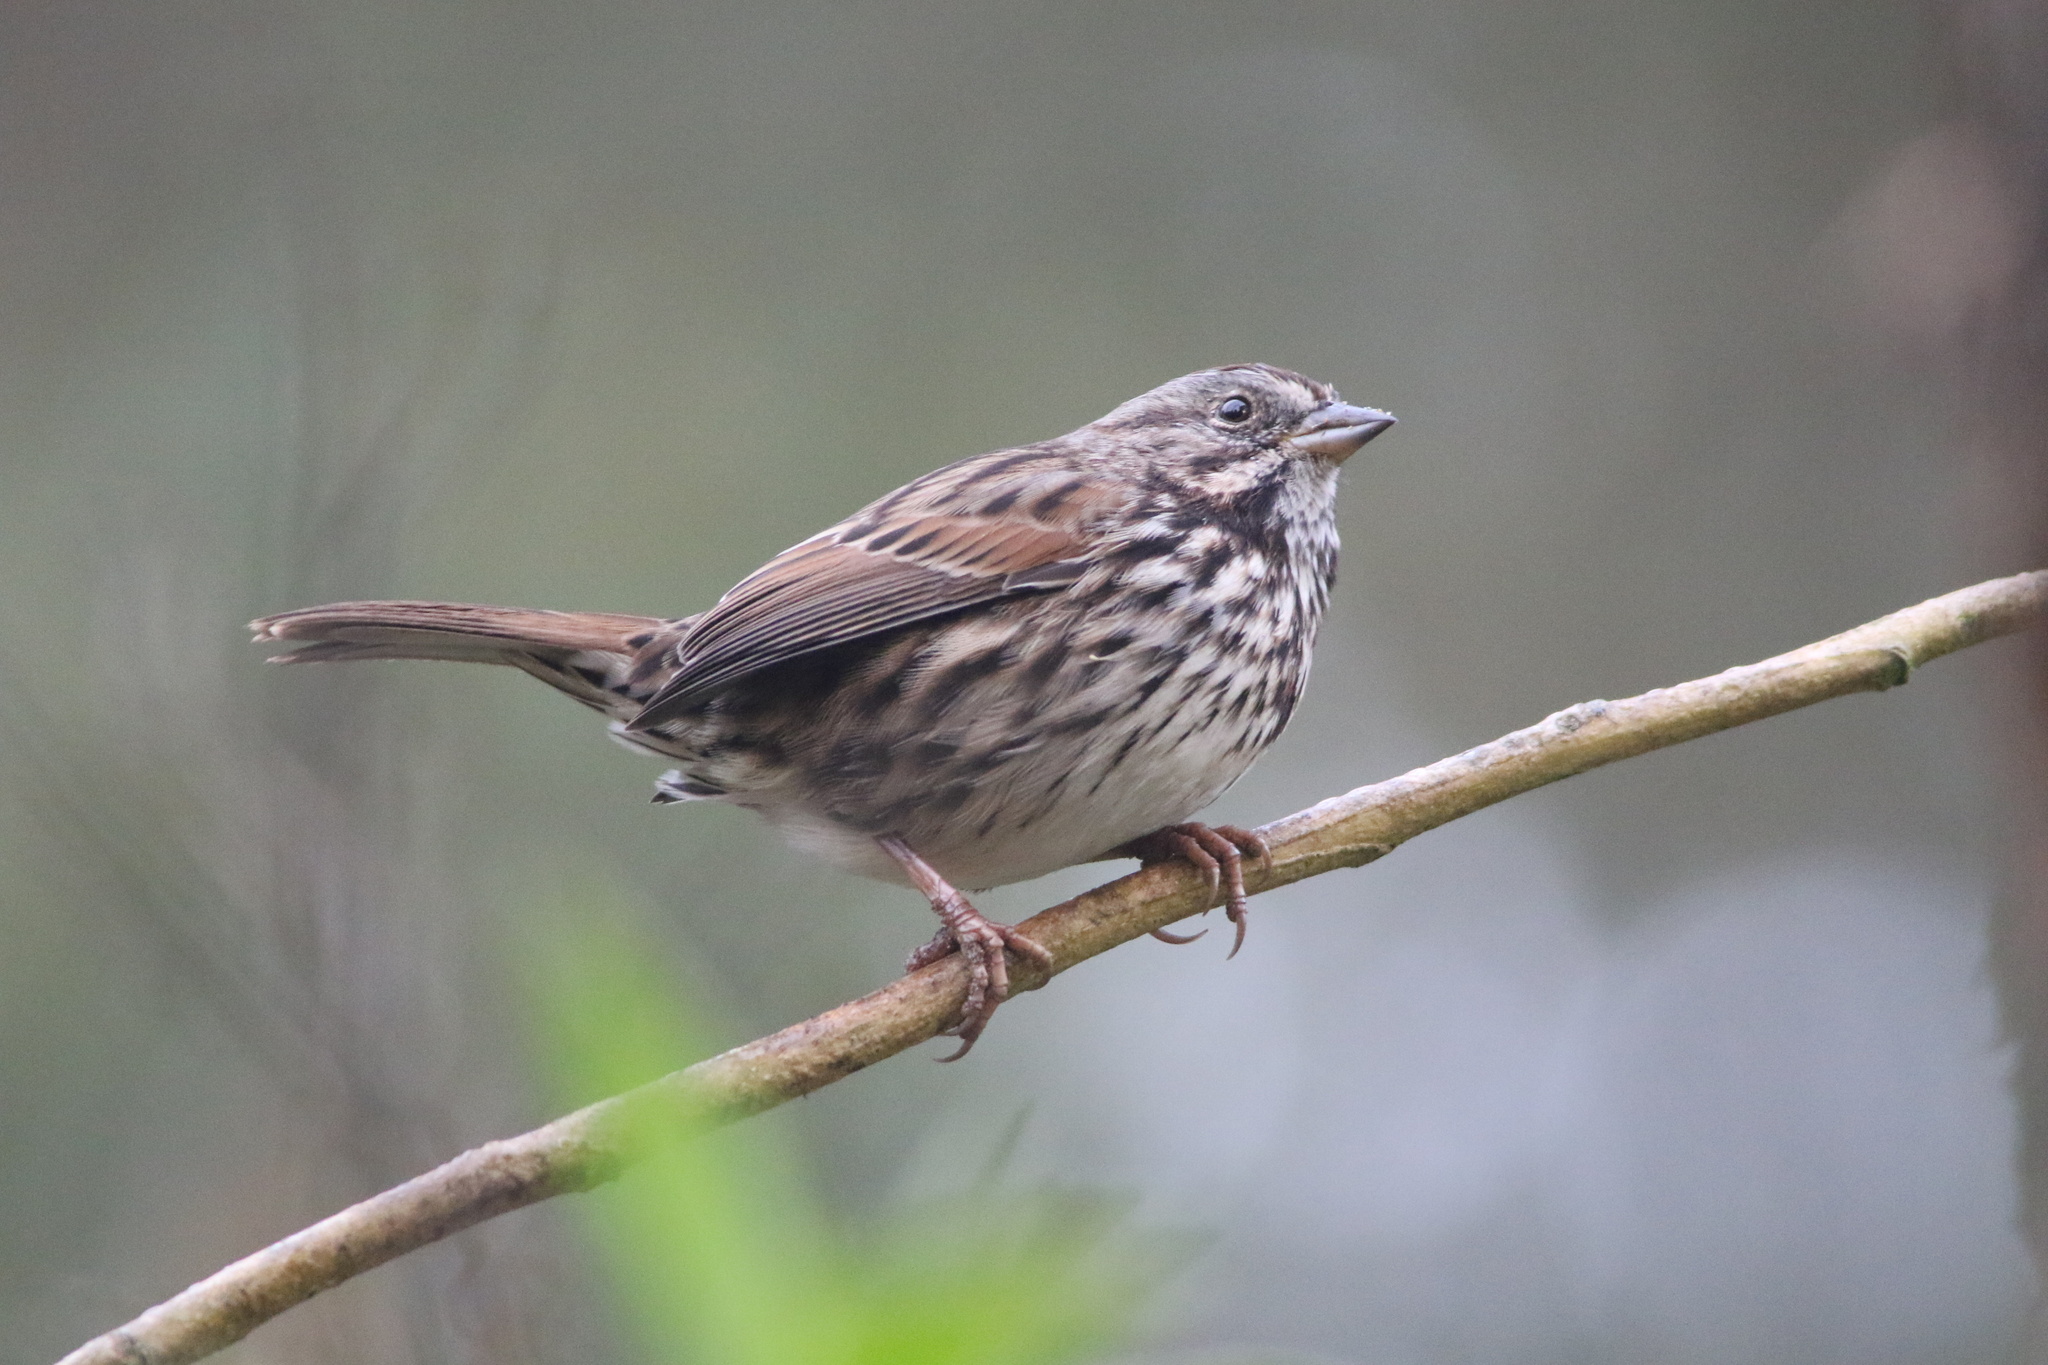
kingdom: Animalia
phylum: Chordata
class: Aves
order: Passeriformes
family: Passerellidae
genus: Melospiza
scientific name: Melospiza melodia
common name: Song sparrow
